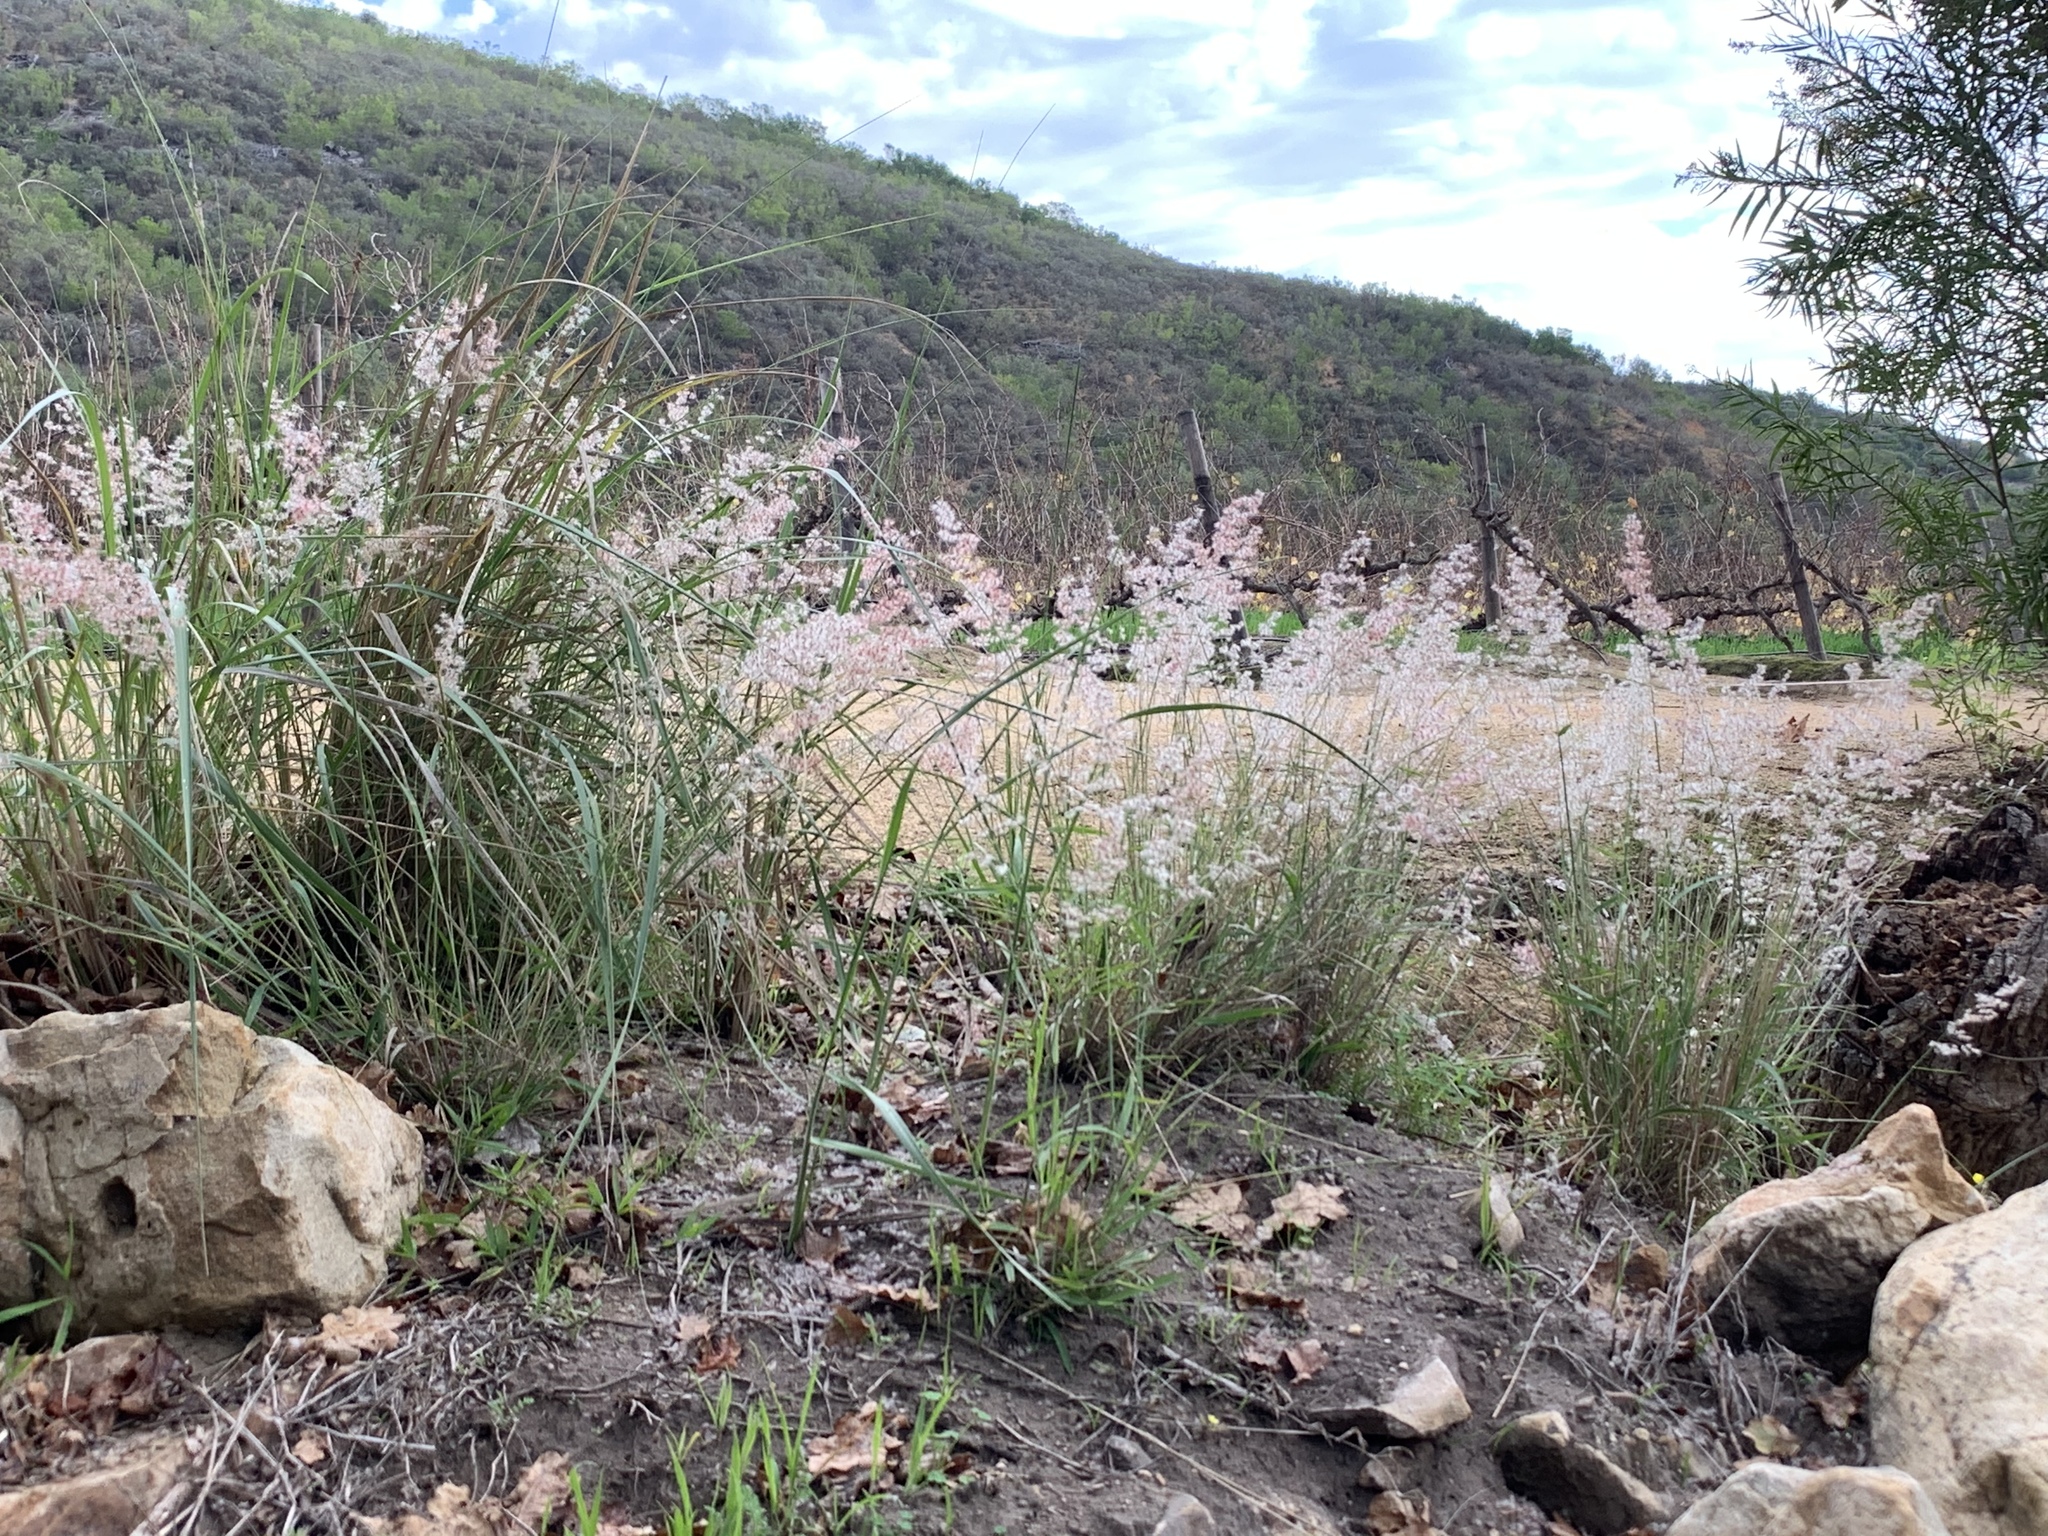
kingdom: Plantae
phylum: Tracheophyta
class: Liliopsida
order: Poales
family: Poaceae
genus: Melinis
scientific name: Melinis repens
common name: Rose natal grass
